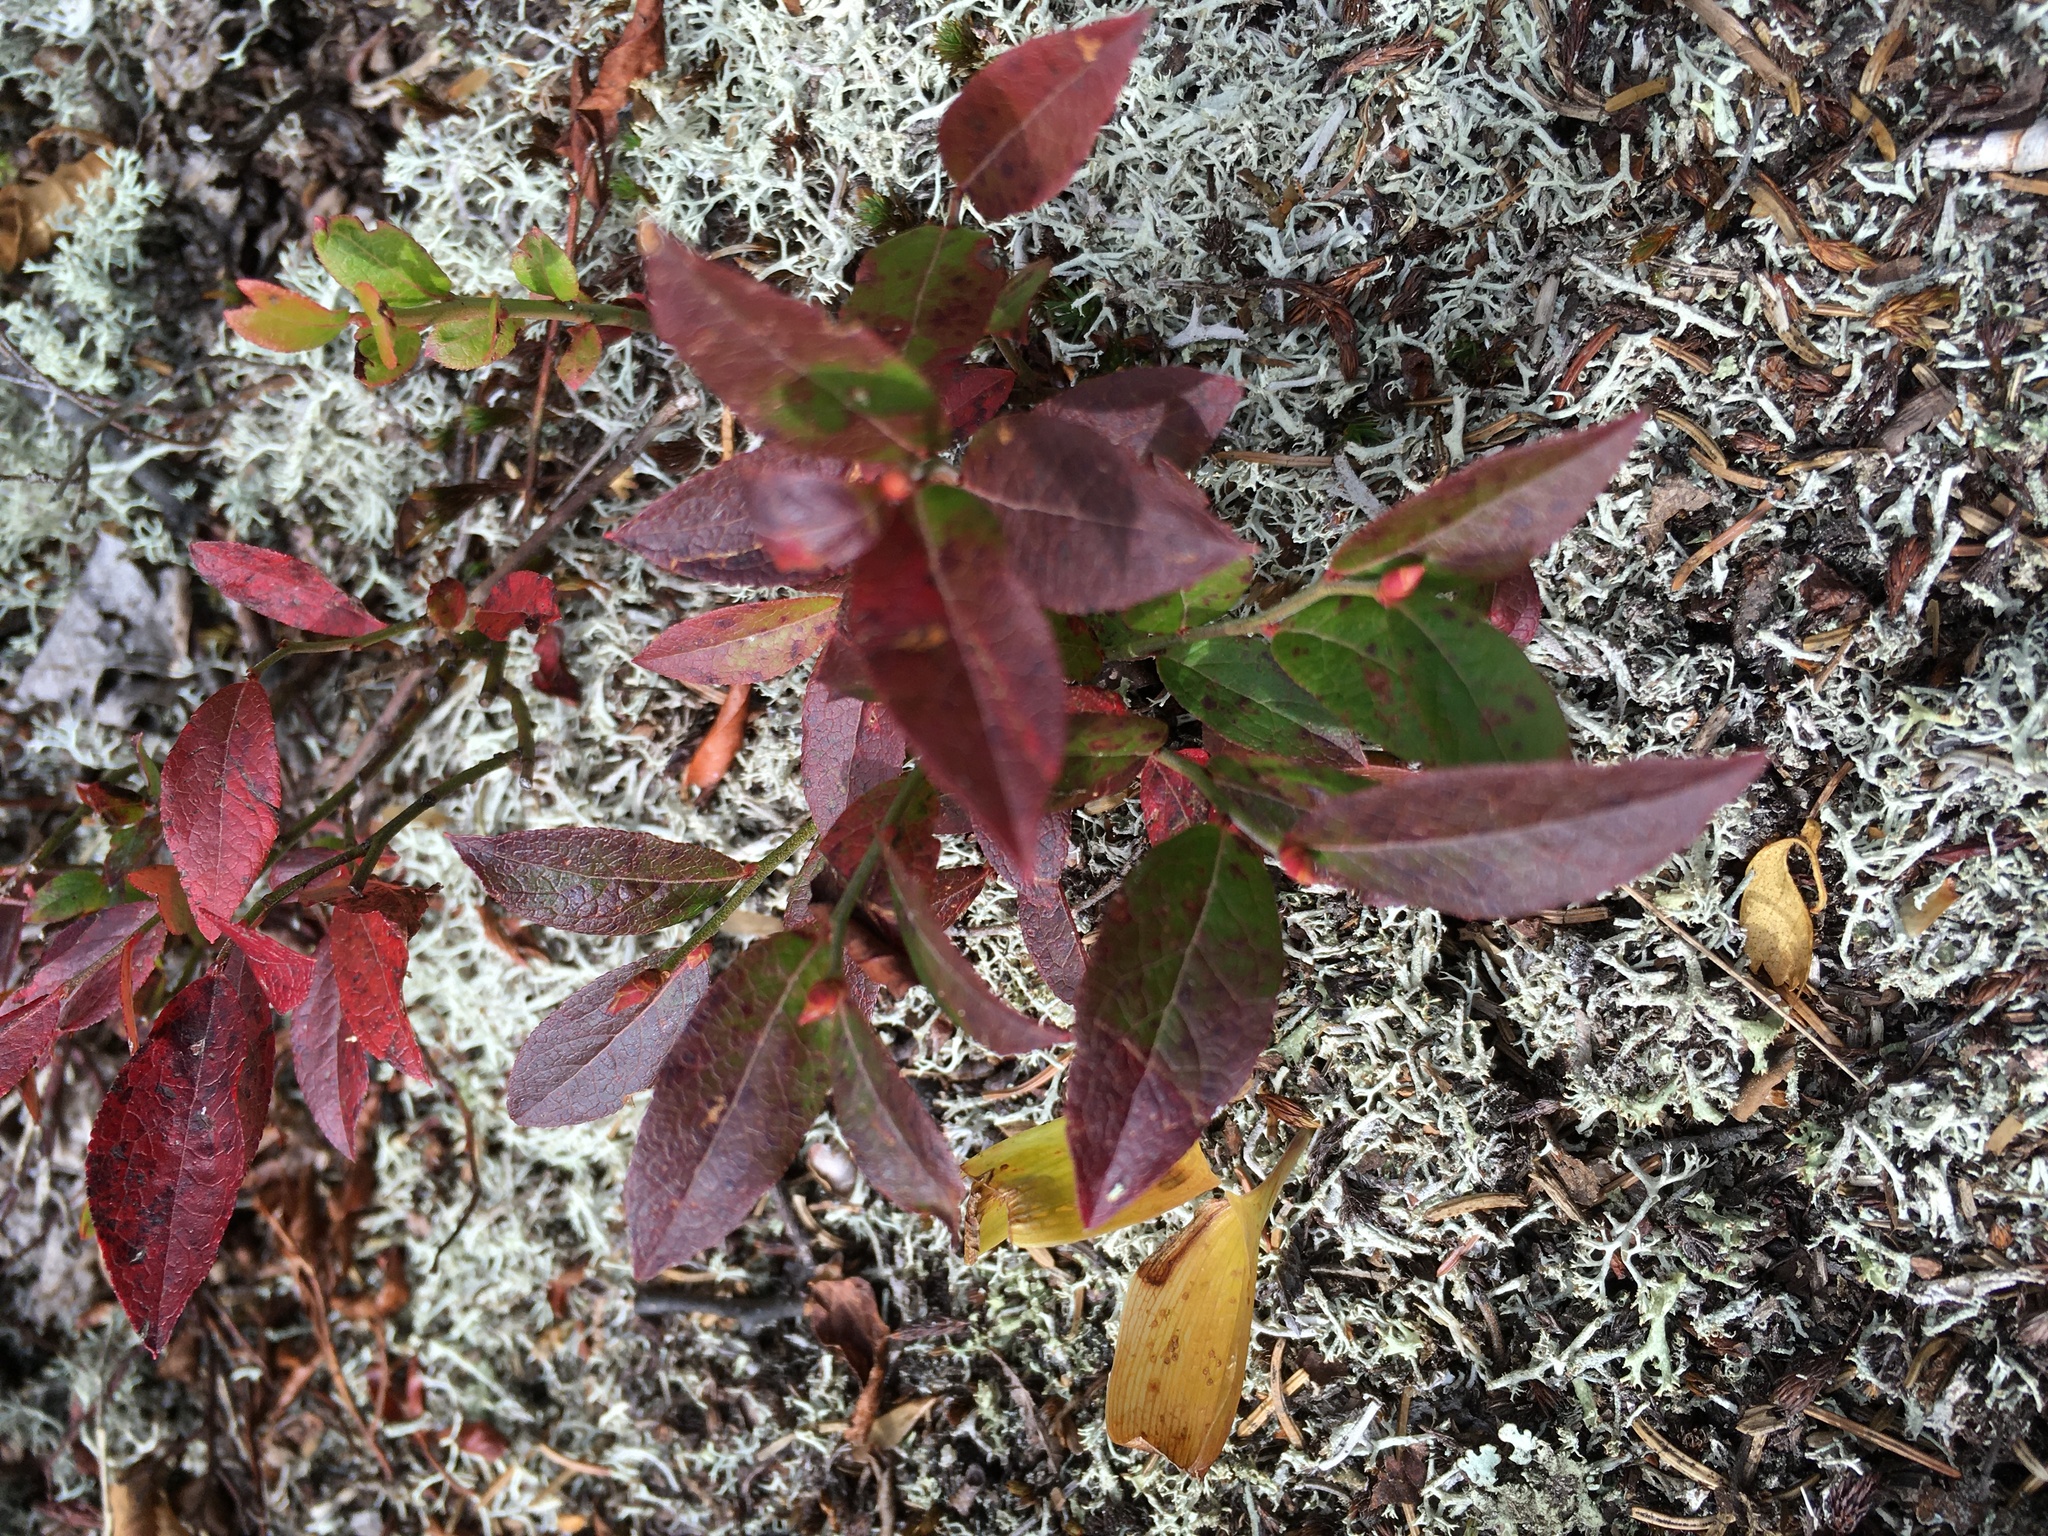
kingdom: Plantae
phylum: Tracheophyta
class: Magnoliopsida
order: Ericales
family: Ericaceae
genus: Vaccinium
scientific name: Vaccinium angustifolium
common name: Early lowbush blueberry
